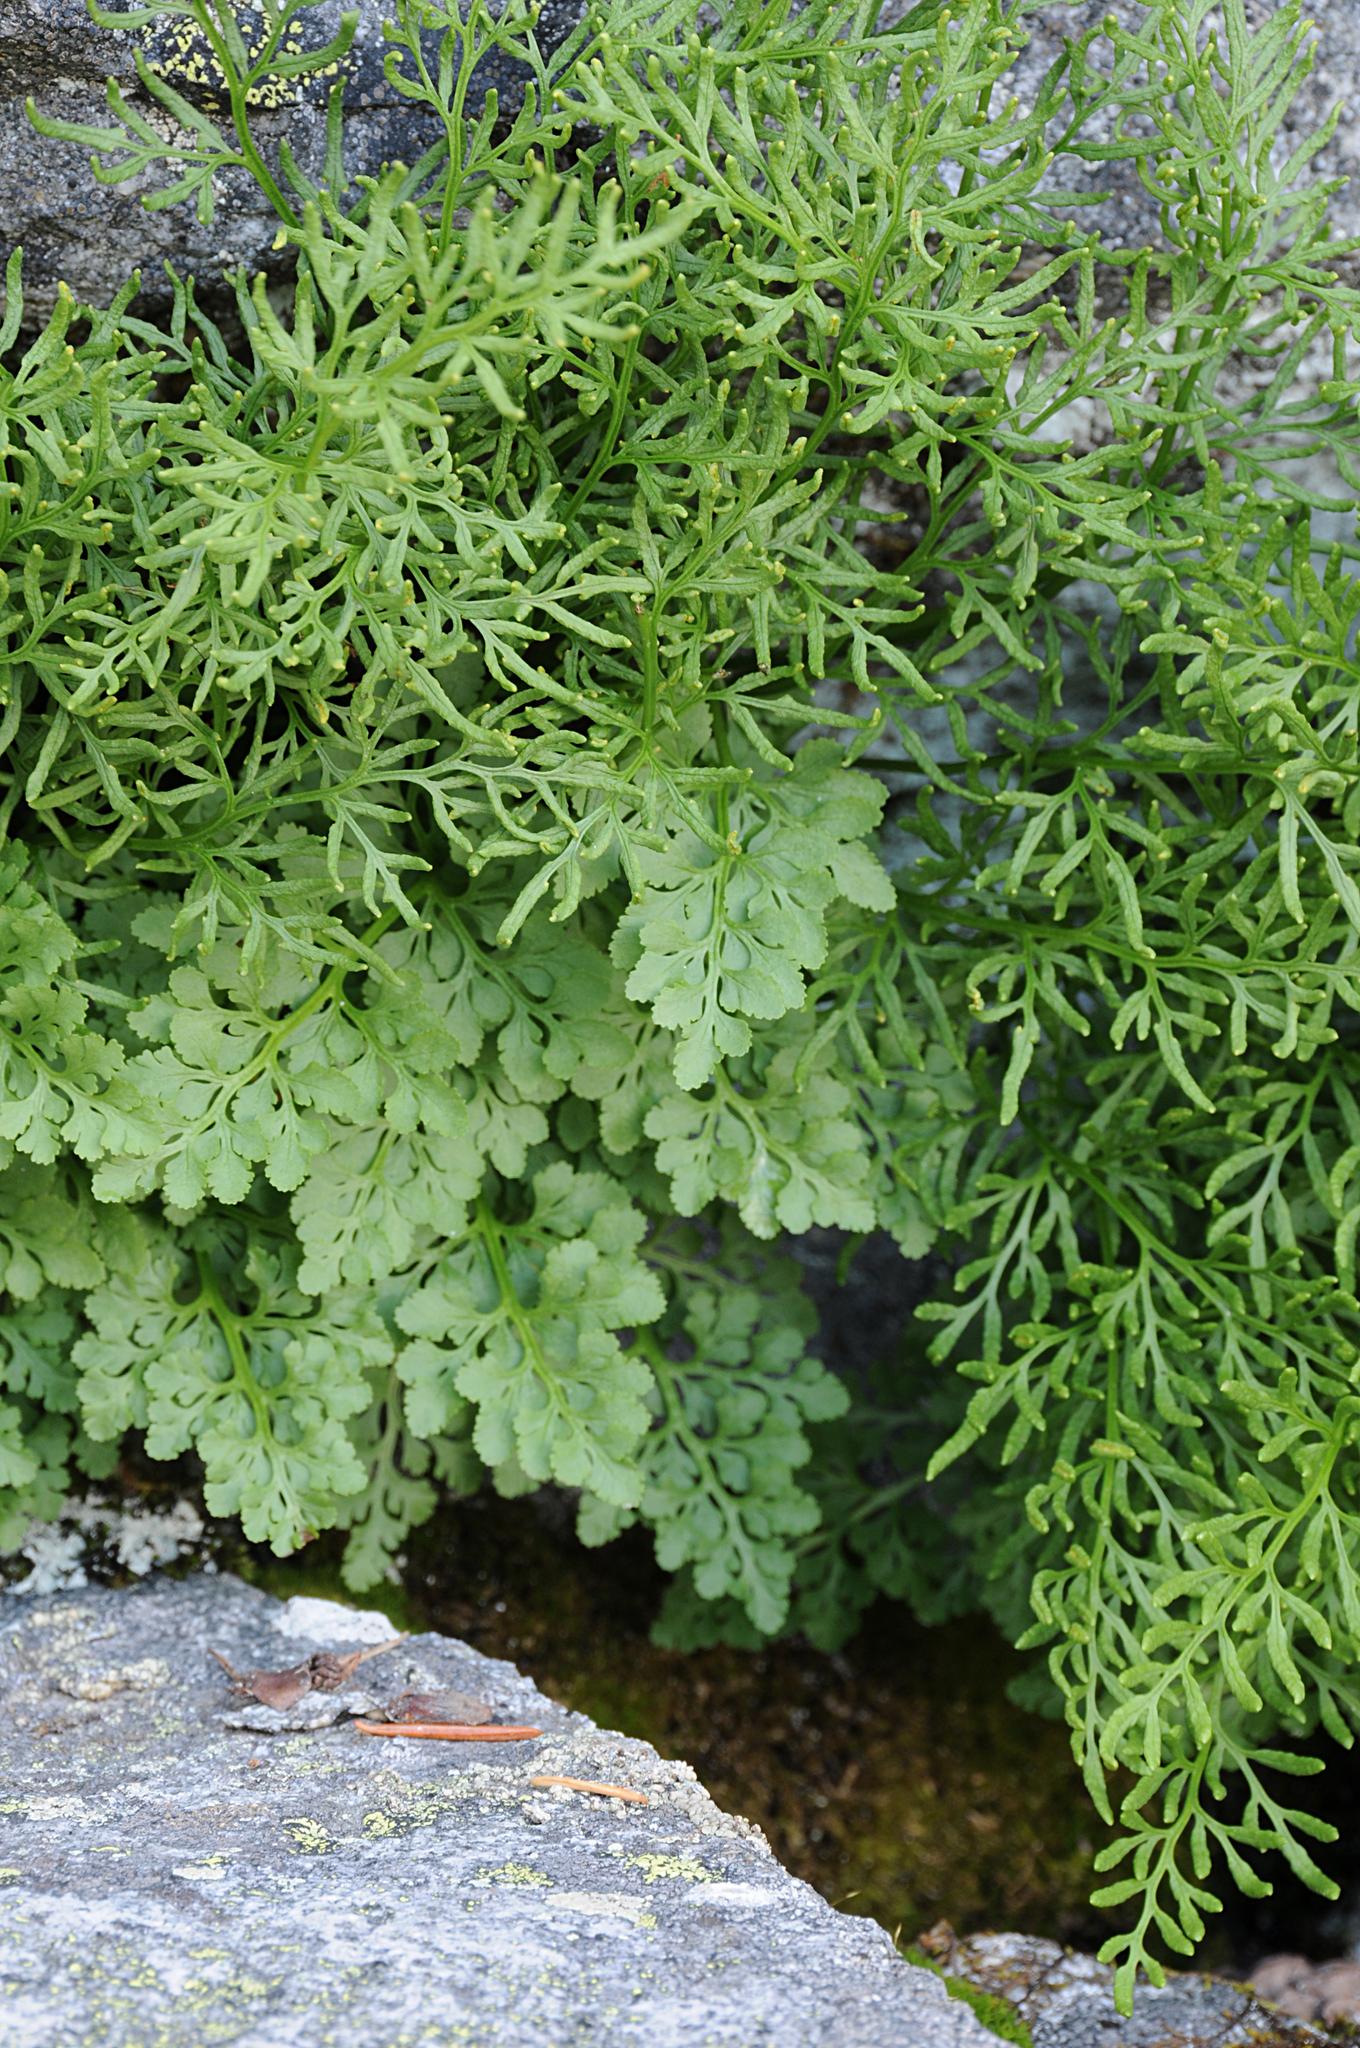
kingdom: Plantae
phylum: Tracheophyta
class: Polypodiopsida
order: Polypodiales
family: Pteridaceae
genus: Cryptogramma
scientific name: Cryptogramma cascadensis
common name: Cascade parsley fern
